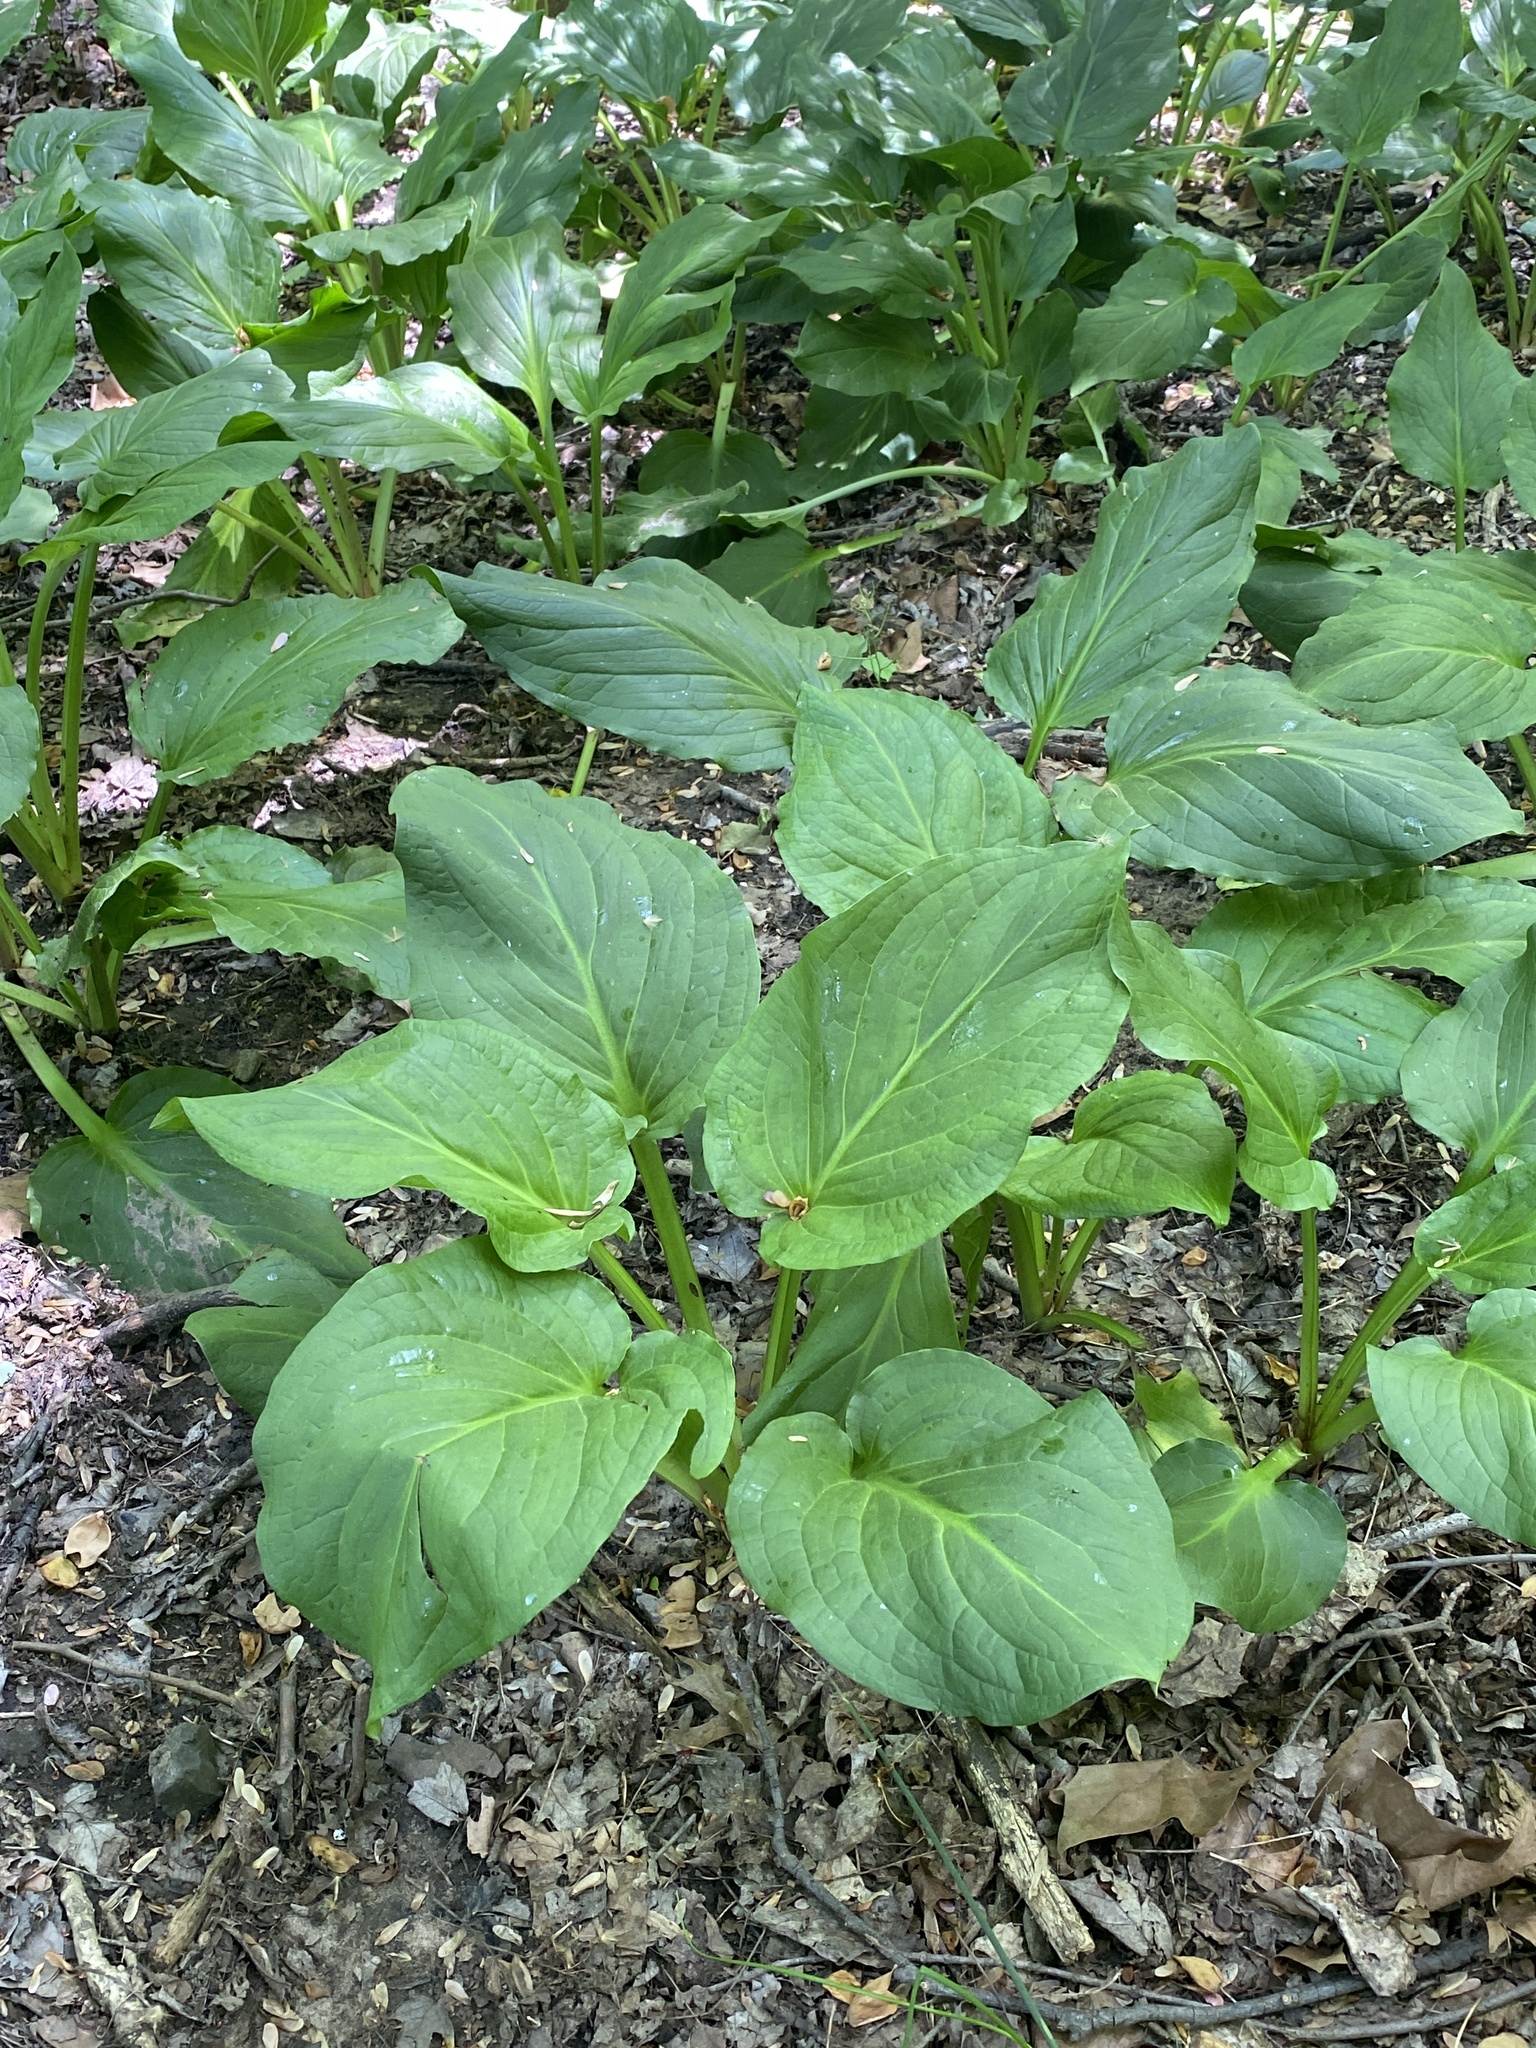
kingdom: Plantae
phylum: Tracheophyta
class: Liliopsida
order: Alismatales
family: Araceae
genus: Symplocarpus
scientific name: Symplocarpus foetidus
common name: Eastern skunk cabbage
